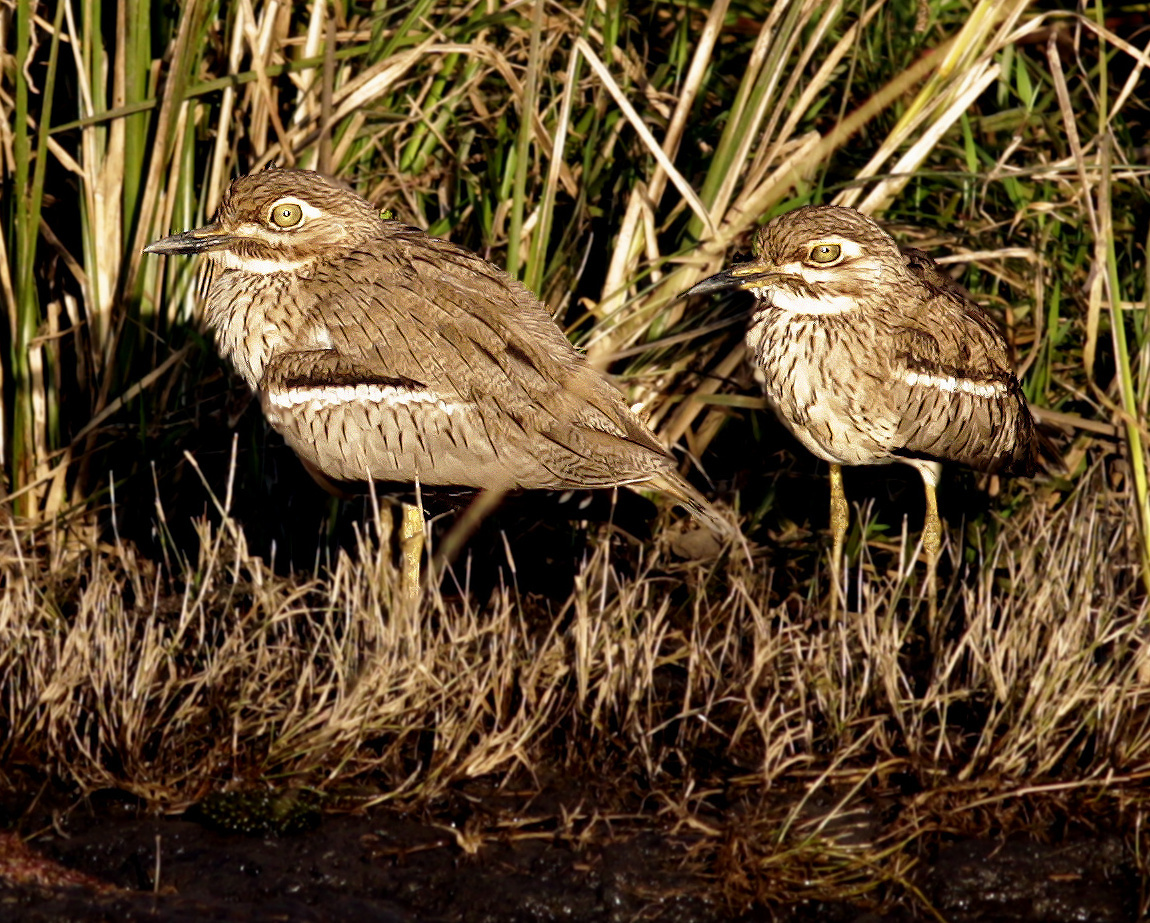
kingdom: Animalia
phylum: Chordata
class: Aves
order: Charadriiformes
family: Burhinidae
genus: Burhinus
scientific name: Burhinus vermiculatus
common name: Water thick-knee
